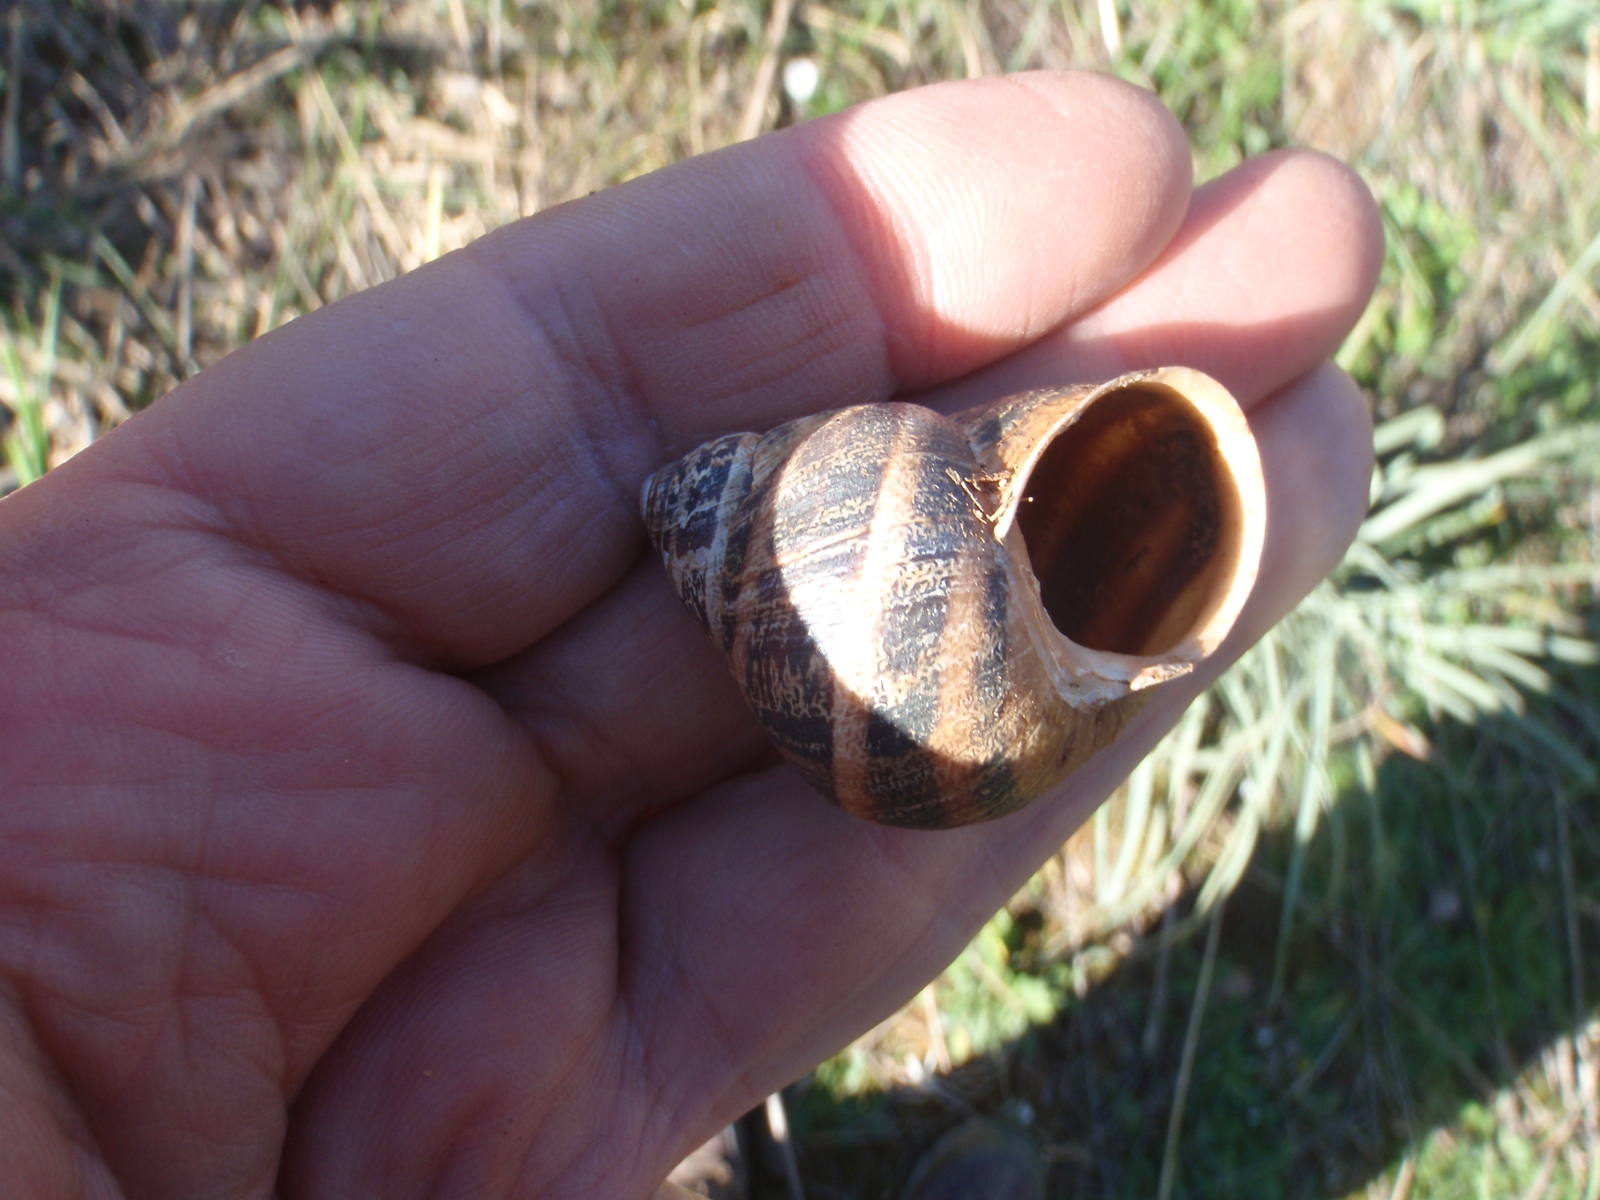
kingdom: Animalia
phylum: Mollusca
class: Gastropoda
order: Stylommatophora
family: Helicidae
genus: Cornu
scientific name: Cornu aspersum
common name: Brown garden snail
